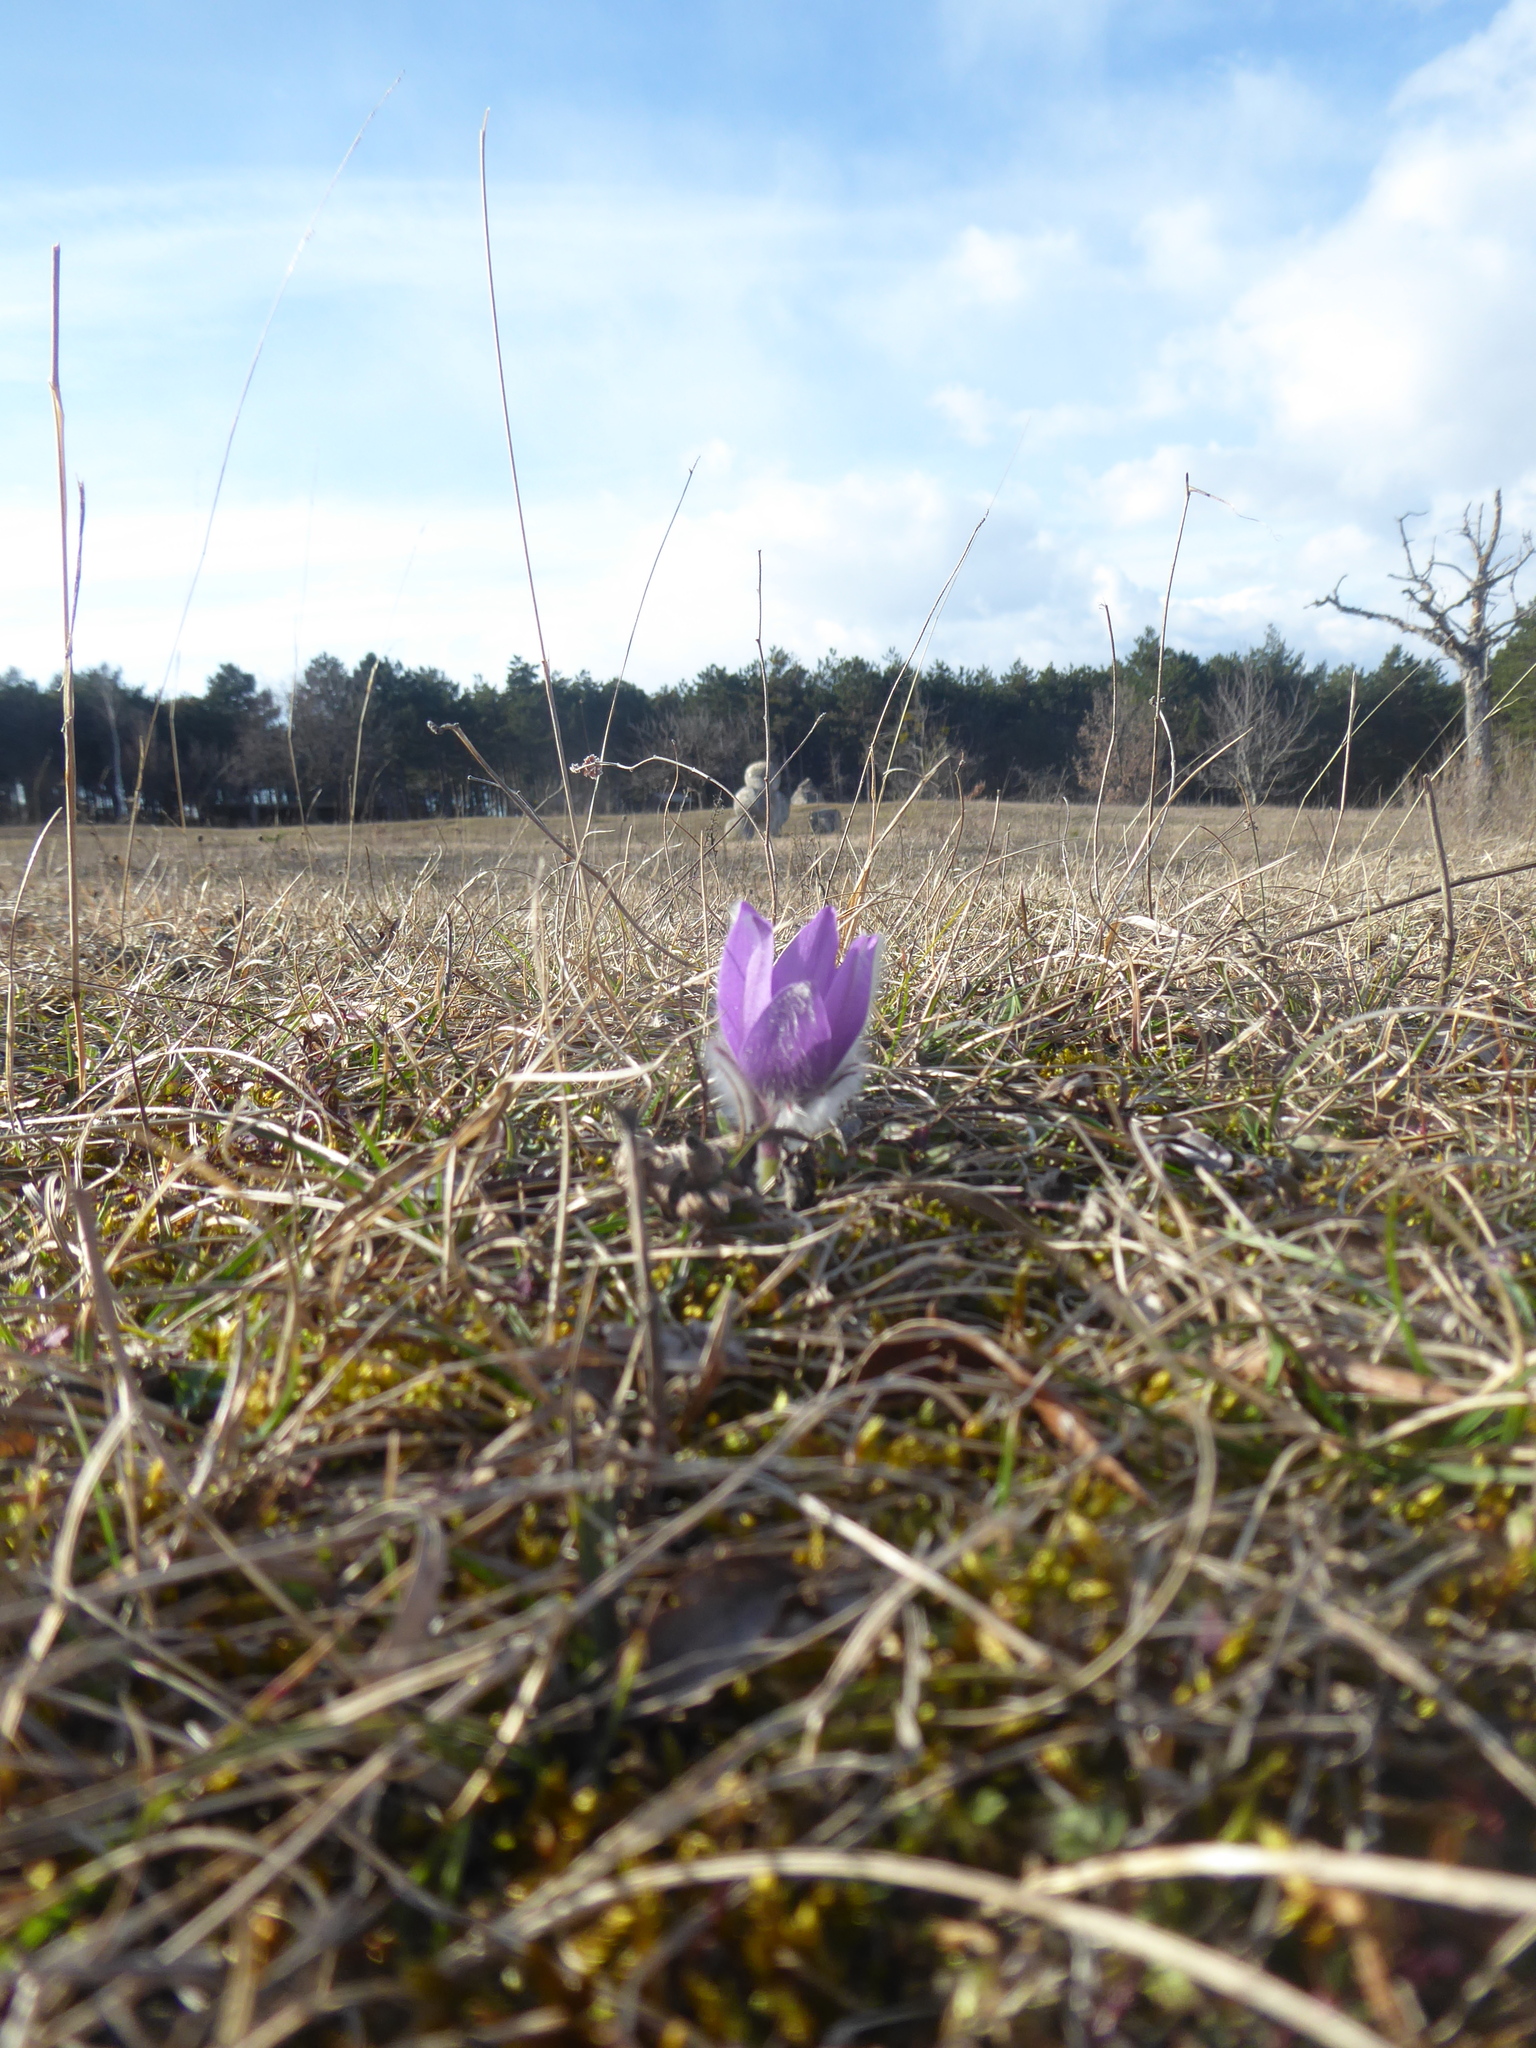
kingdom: Plantae
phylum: Tracheophyta
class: Magnoliopsida
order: Ranunculales
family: Ranunculaceae
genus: Pulsatilla
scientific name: Pulsatilla grandis
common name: Greater pasque flower
